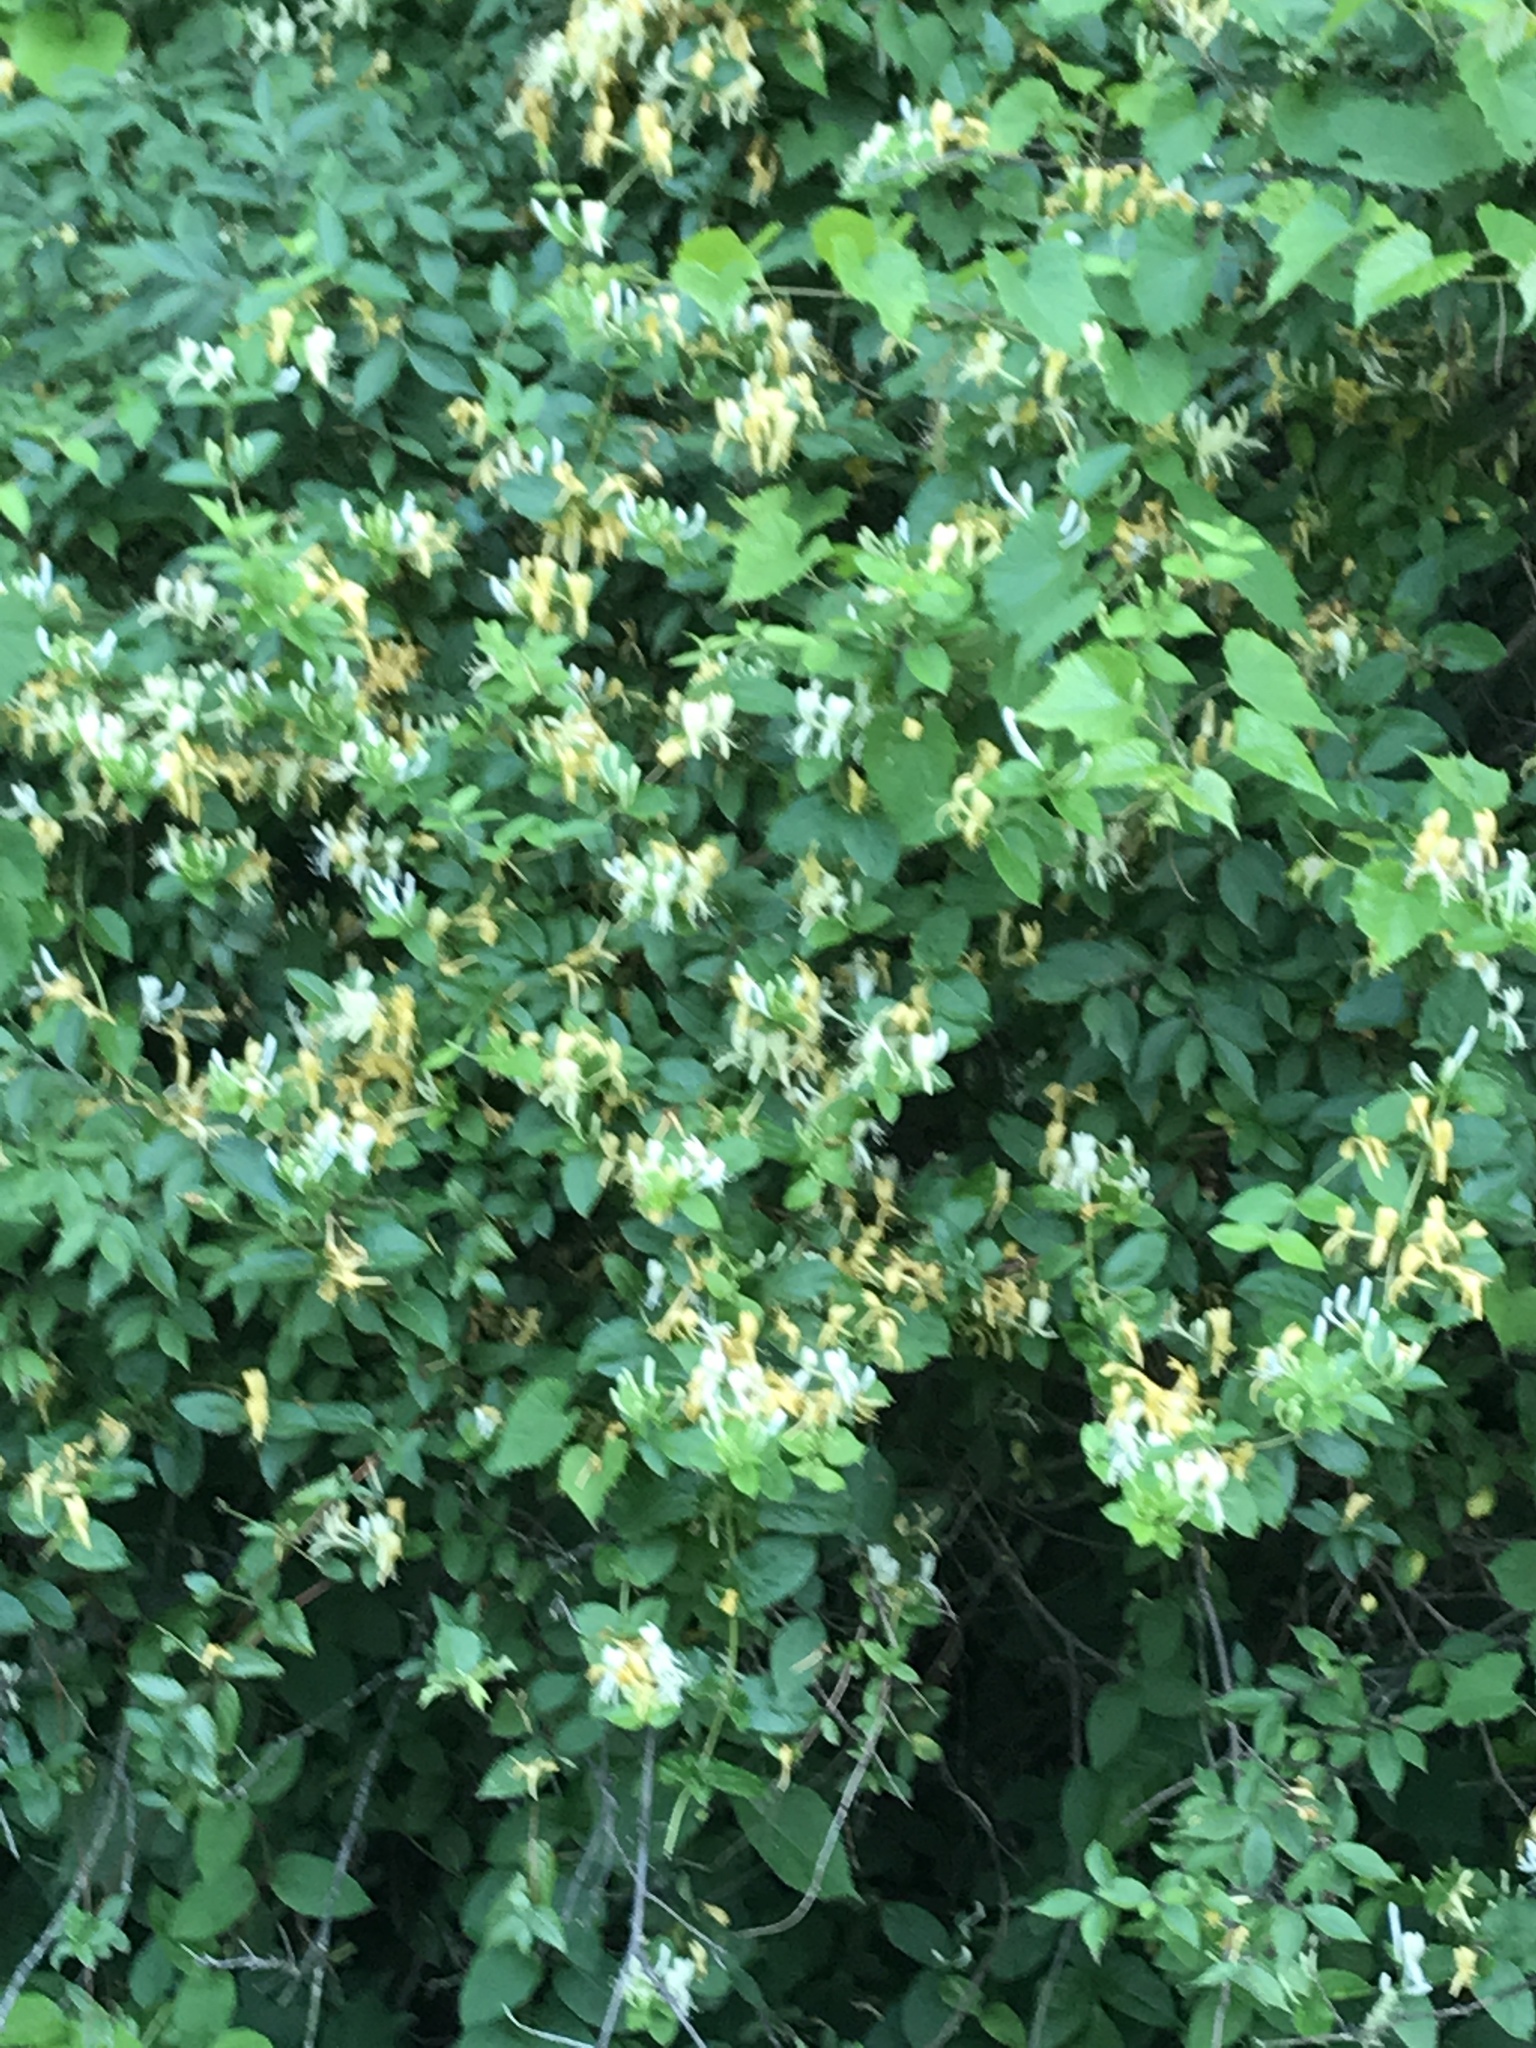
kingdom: Plantae
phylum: Tracheophyta
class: Magnoliopsida
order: Dipsacales
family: Caprifoliaceae
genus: Lonicera
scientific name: Lonicera japonica
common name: Japanese honeysuckle
